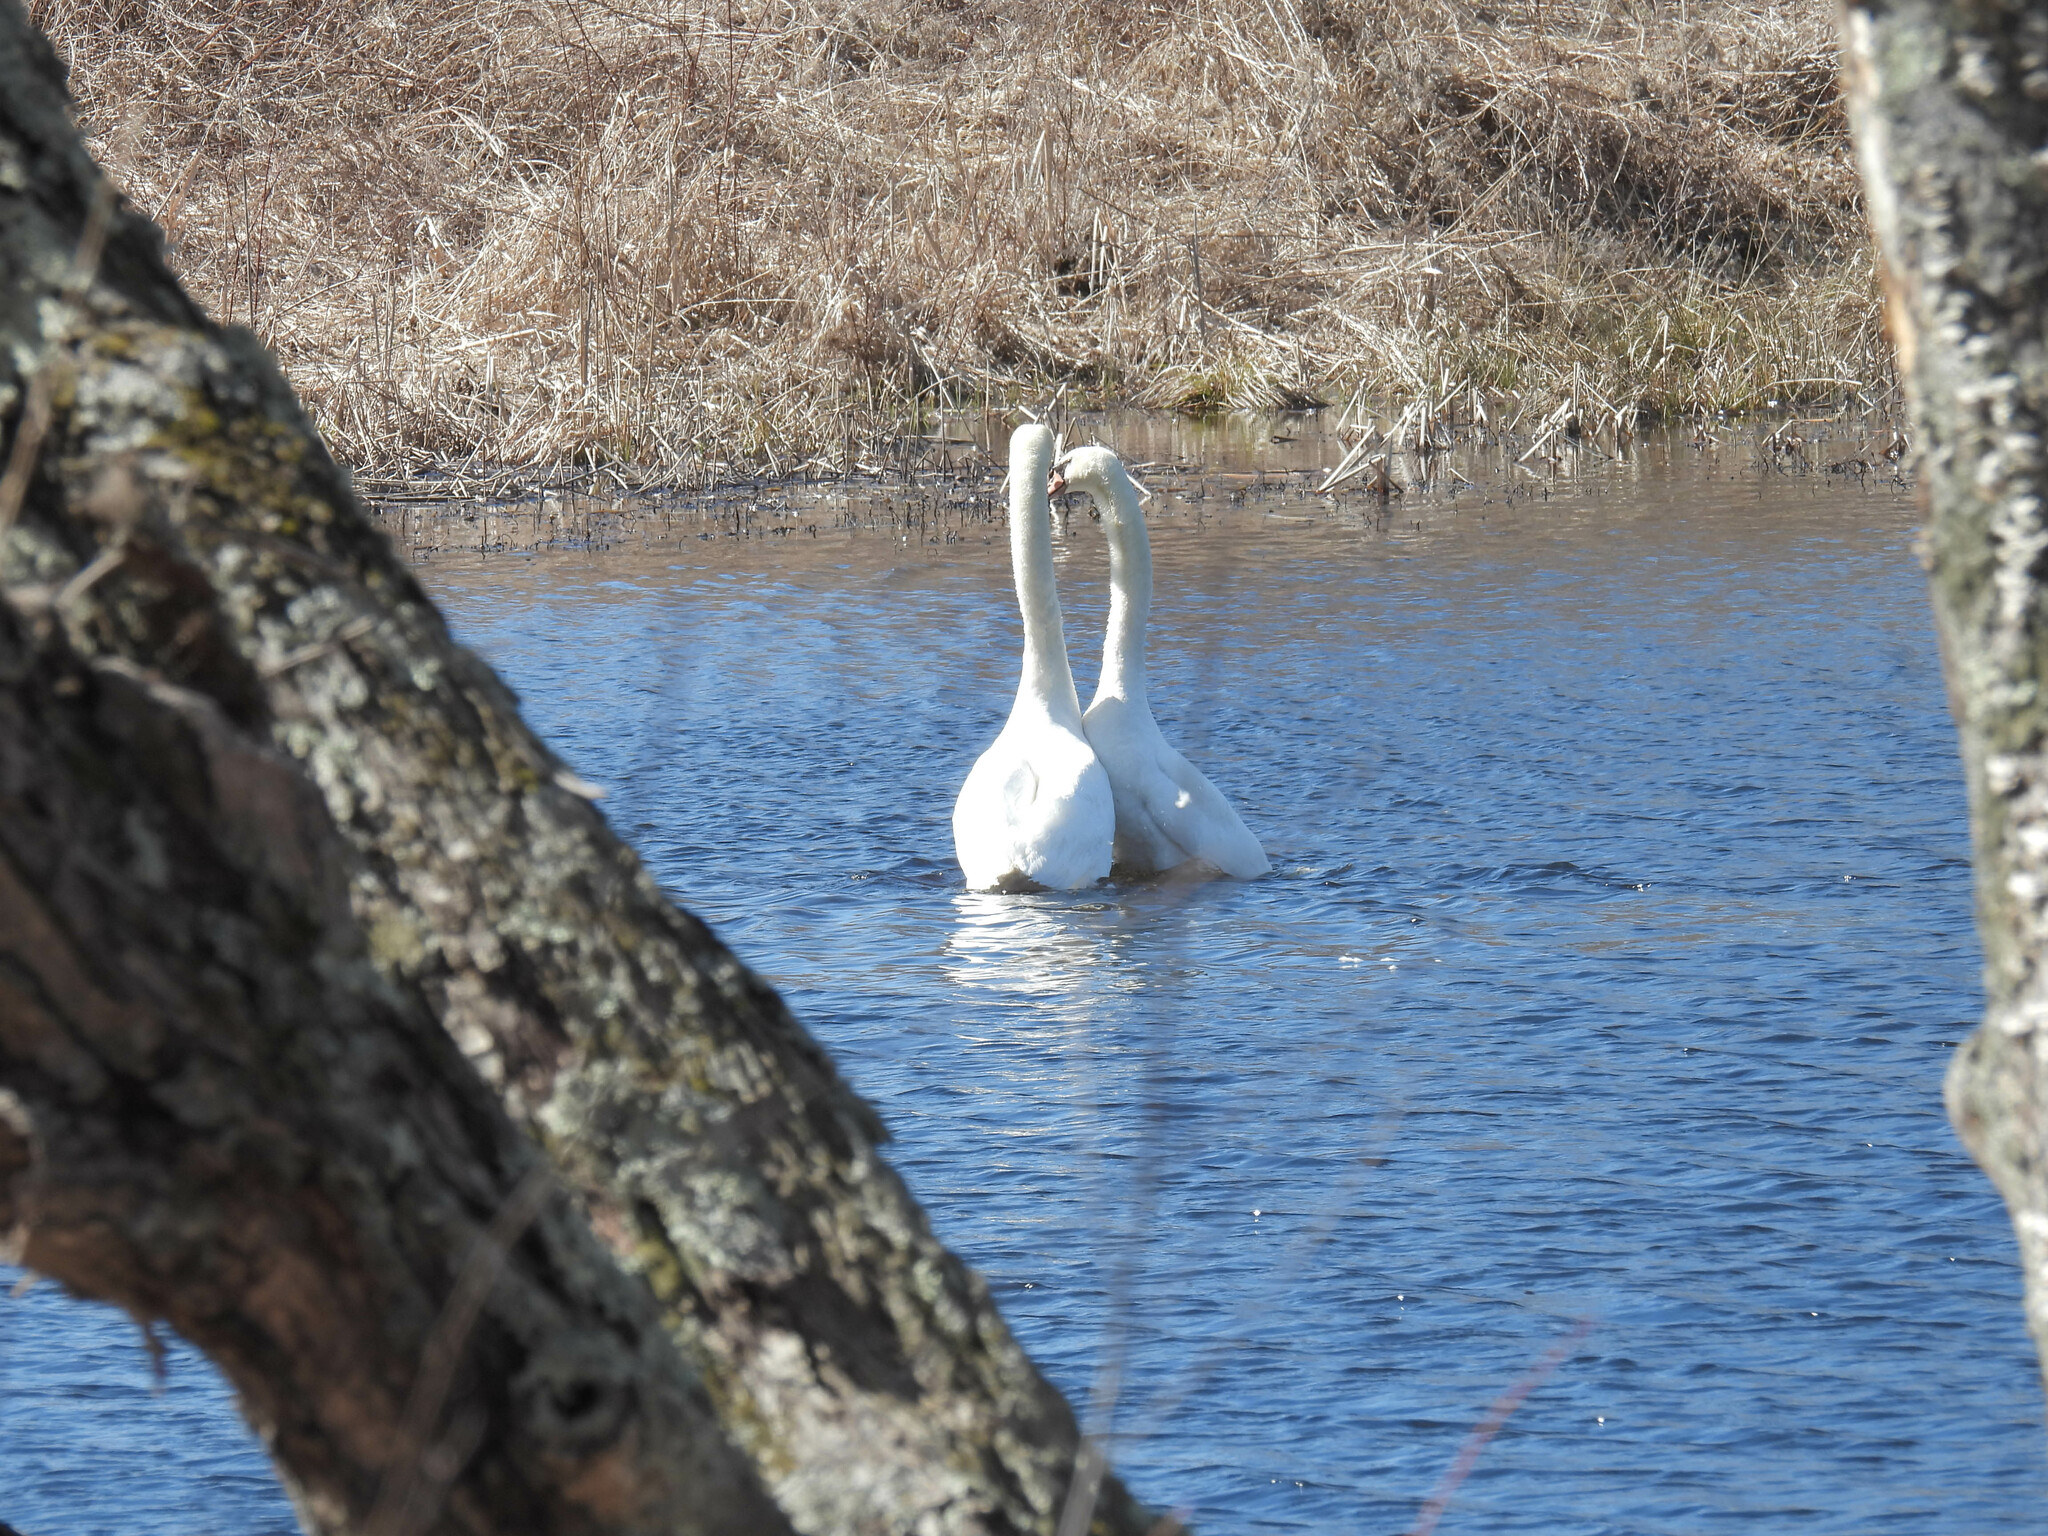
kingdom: Animalia
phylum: Chordata
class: Aves
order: Anseriformes
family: Anatidae
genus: Cygnus
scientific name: Cygnus olor
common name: Mute swan
